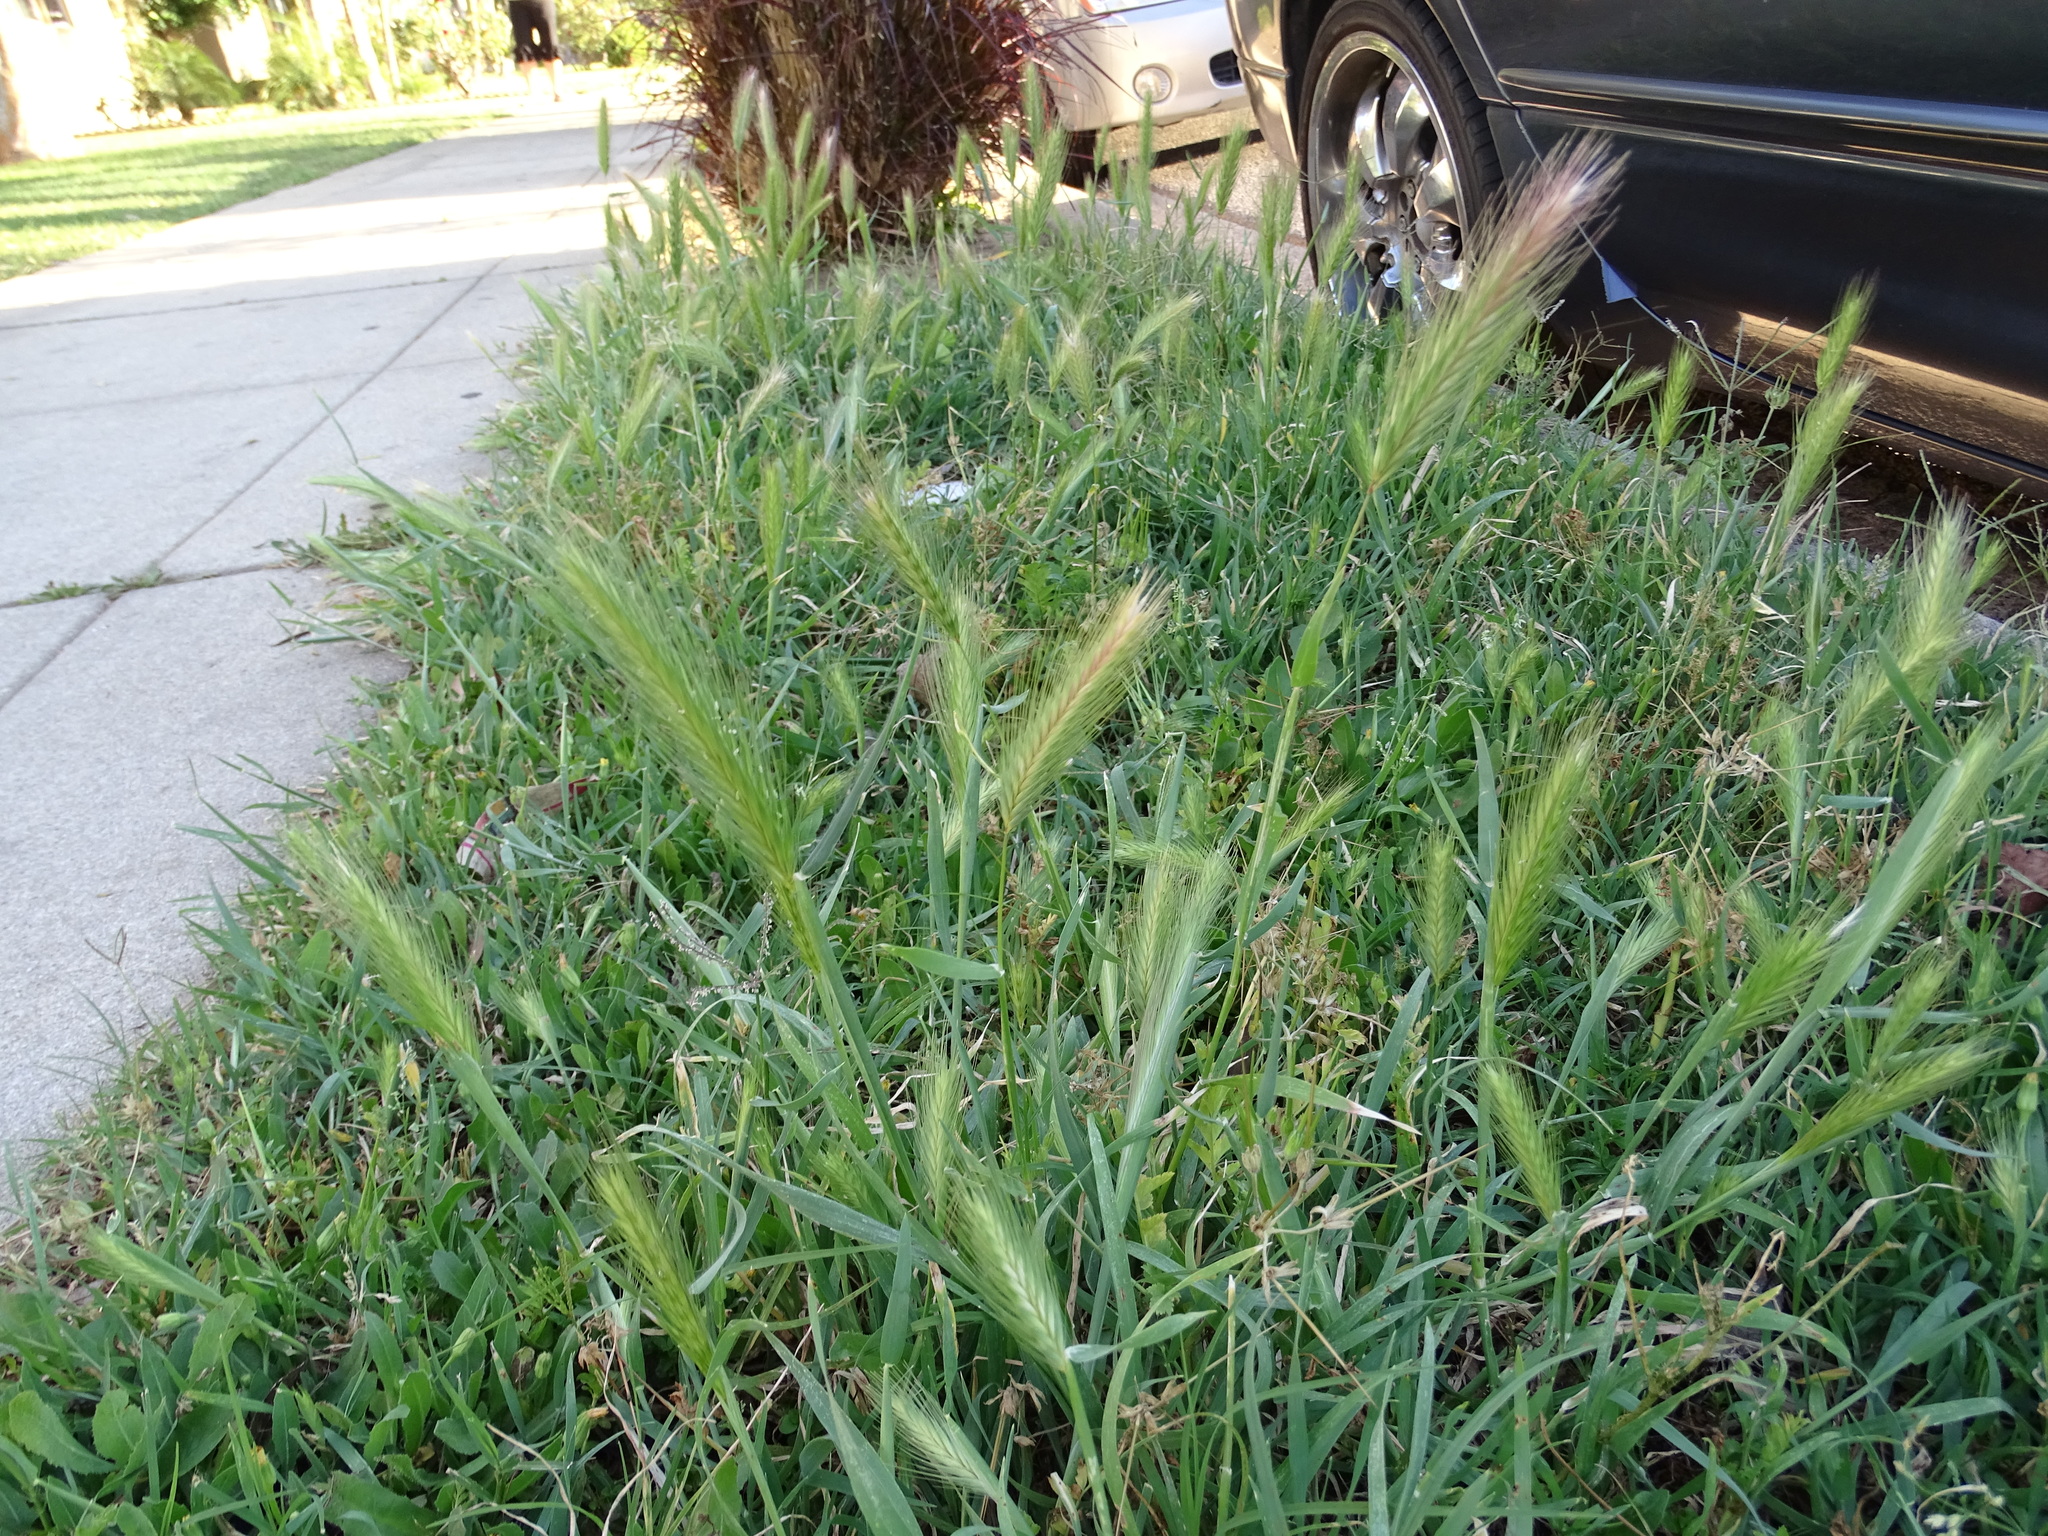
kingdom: Plantae
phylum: Tracheophyta
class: Liliopsida
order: Poales
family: Poaceae
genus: Hordeum
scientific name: Hordeum murinum
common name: Wall barley
